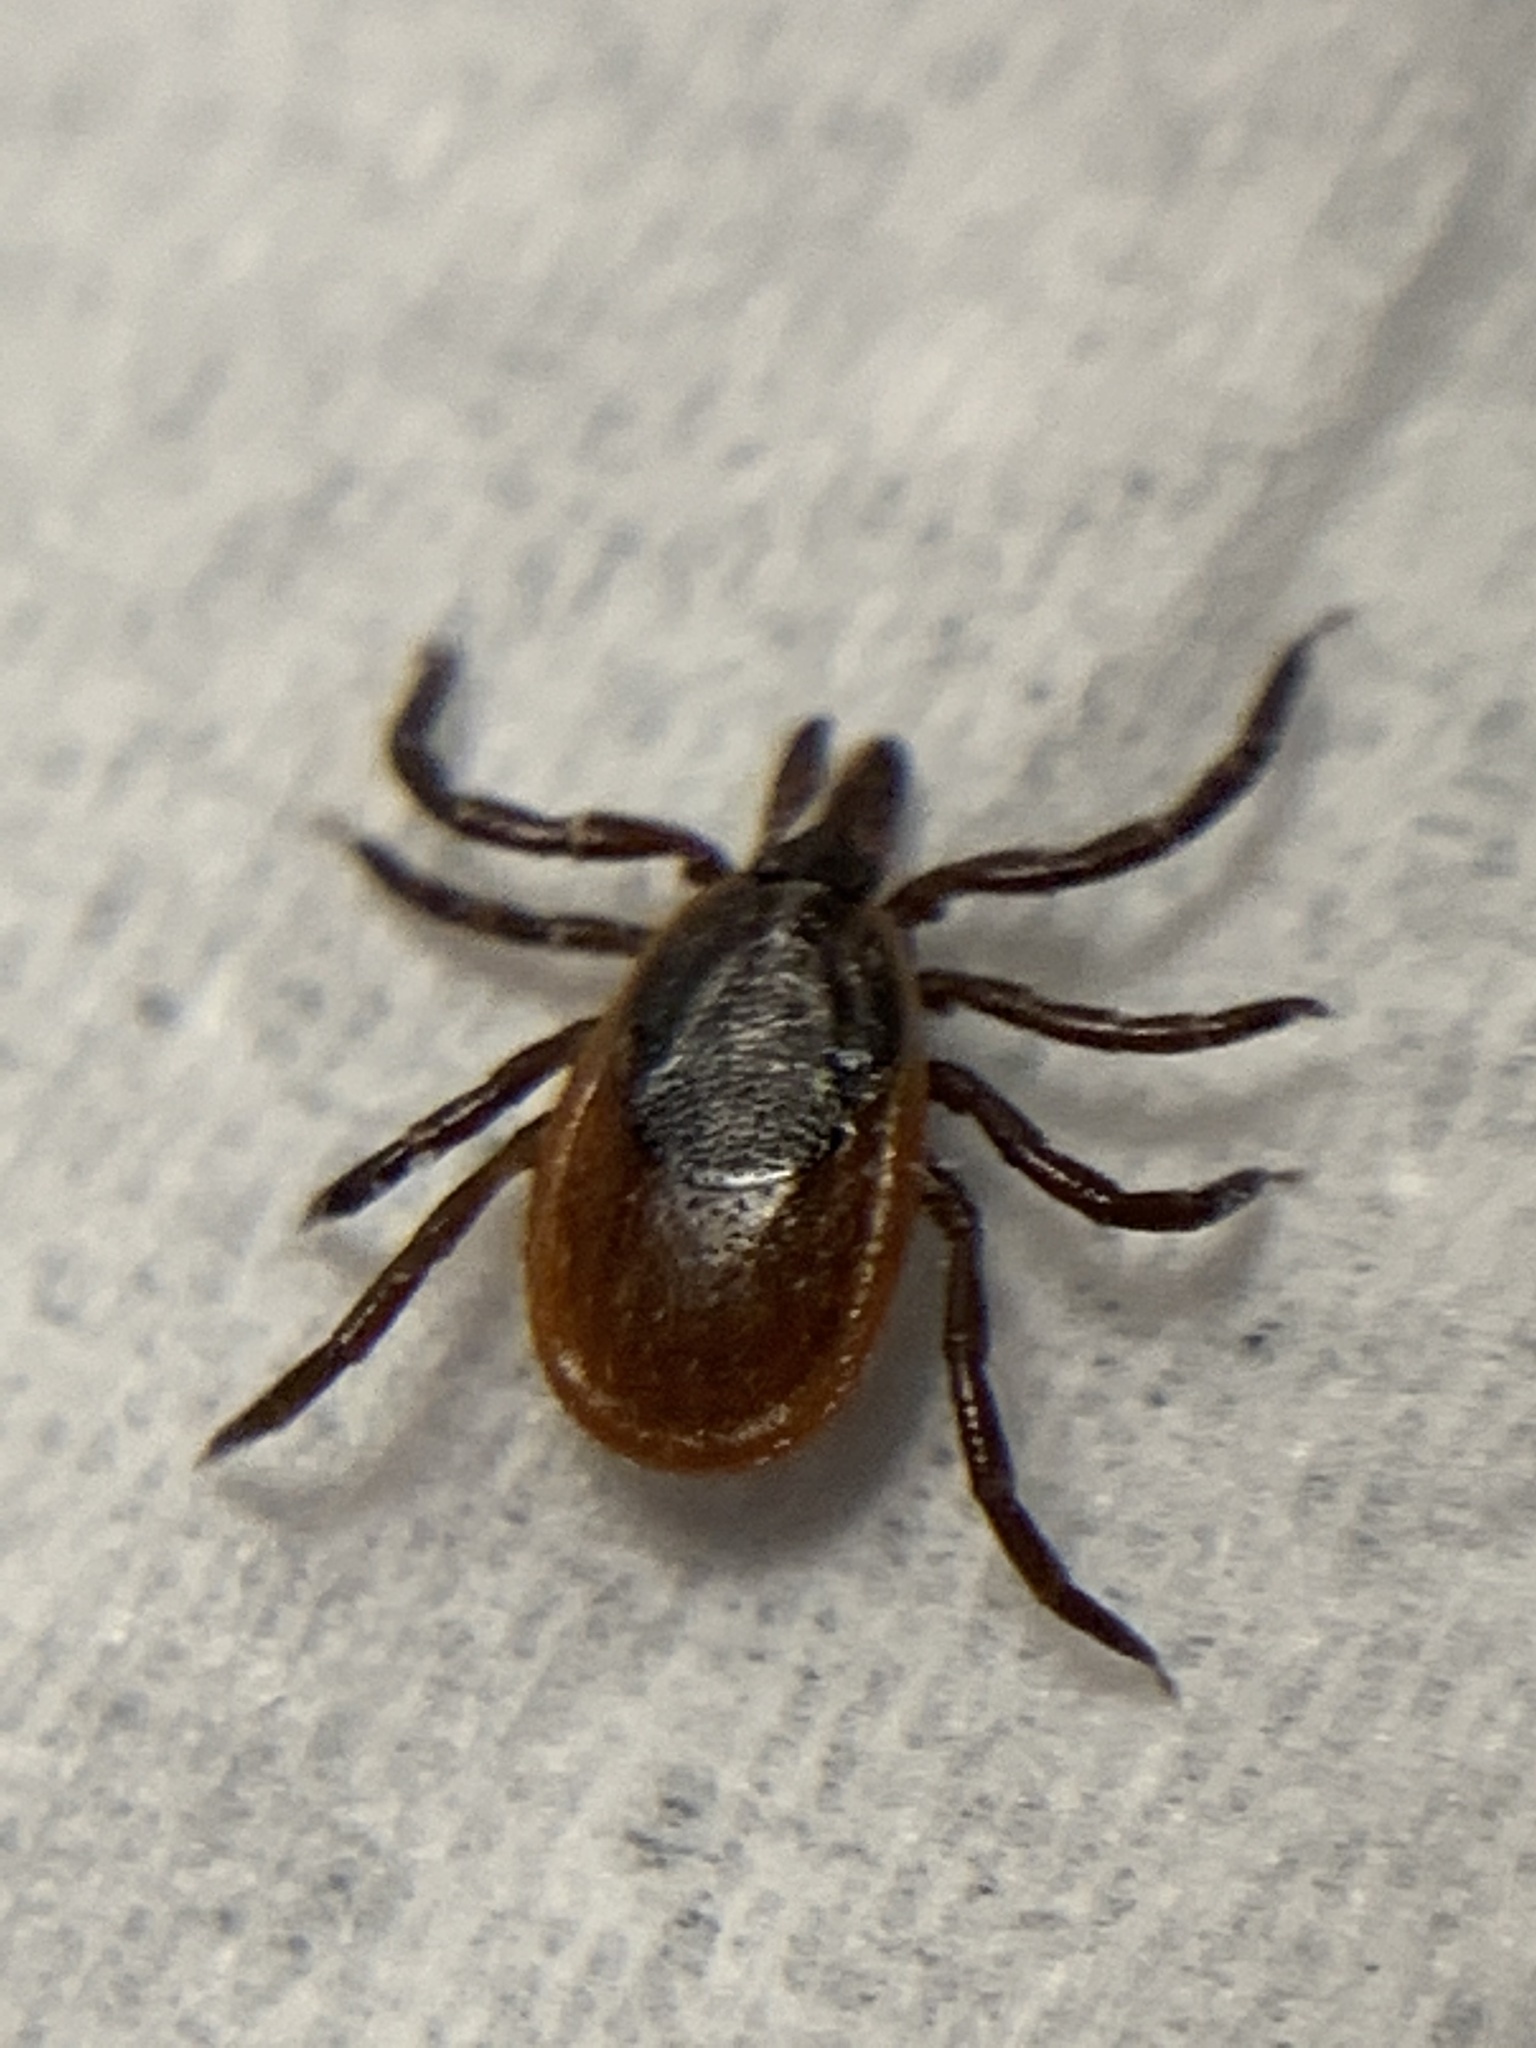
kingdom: Animalia
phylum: Arthropoda
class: Arachnida
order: Ixodida
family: Ixodidae
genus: Ixodes
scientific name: Ixodes scapularis
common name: Black legged tick
